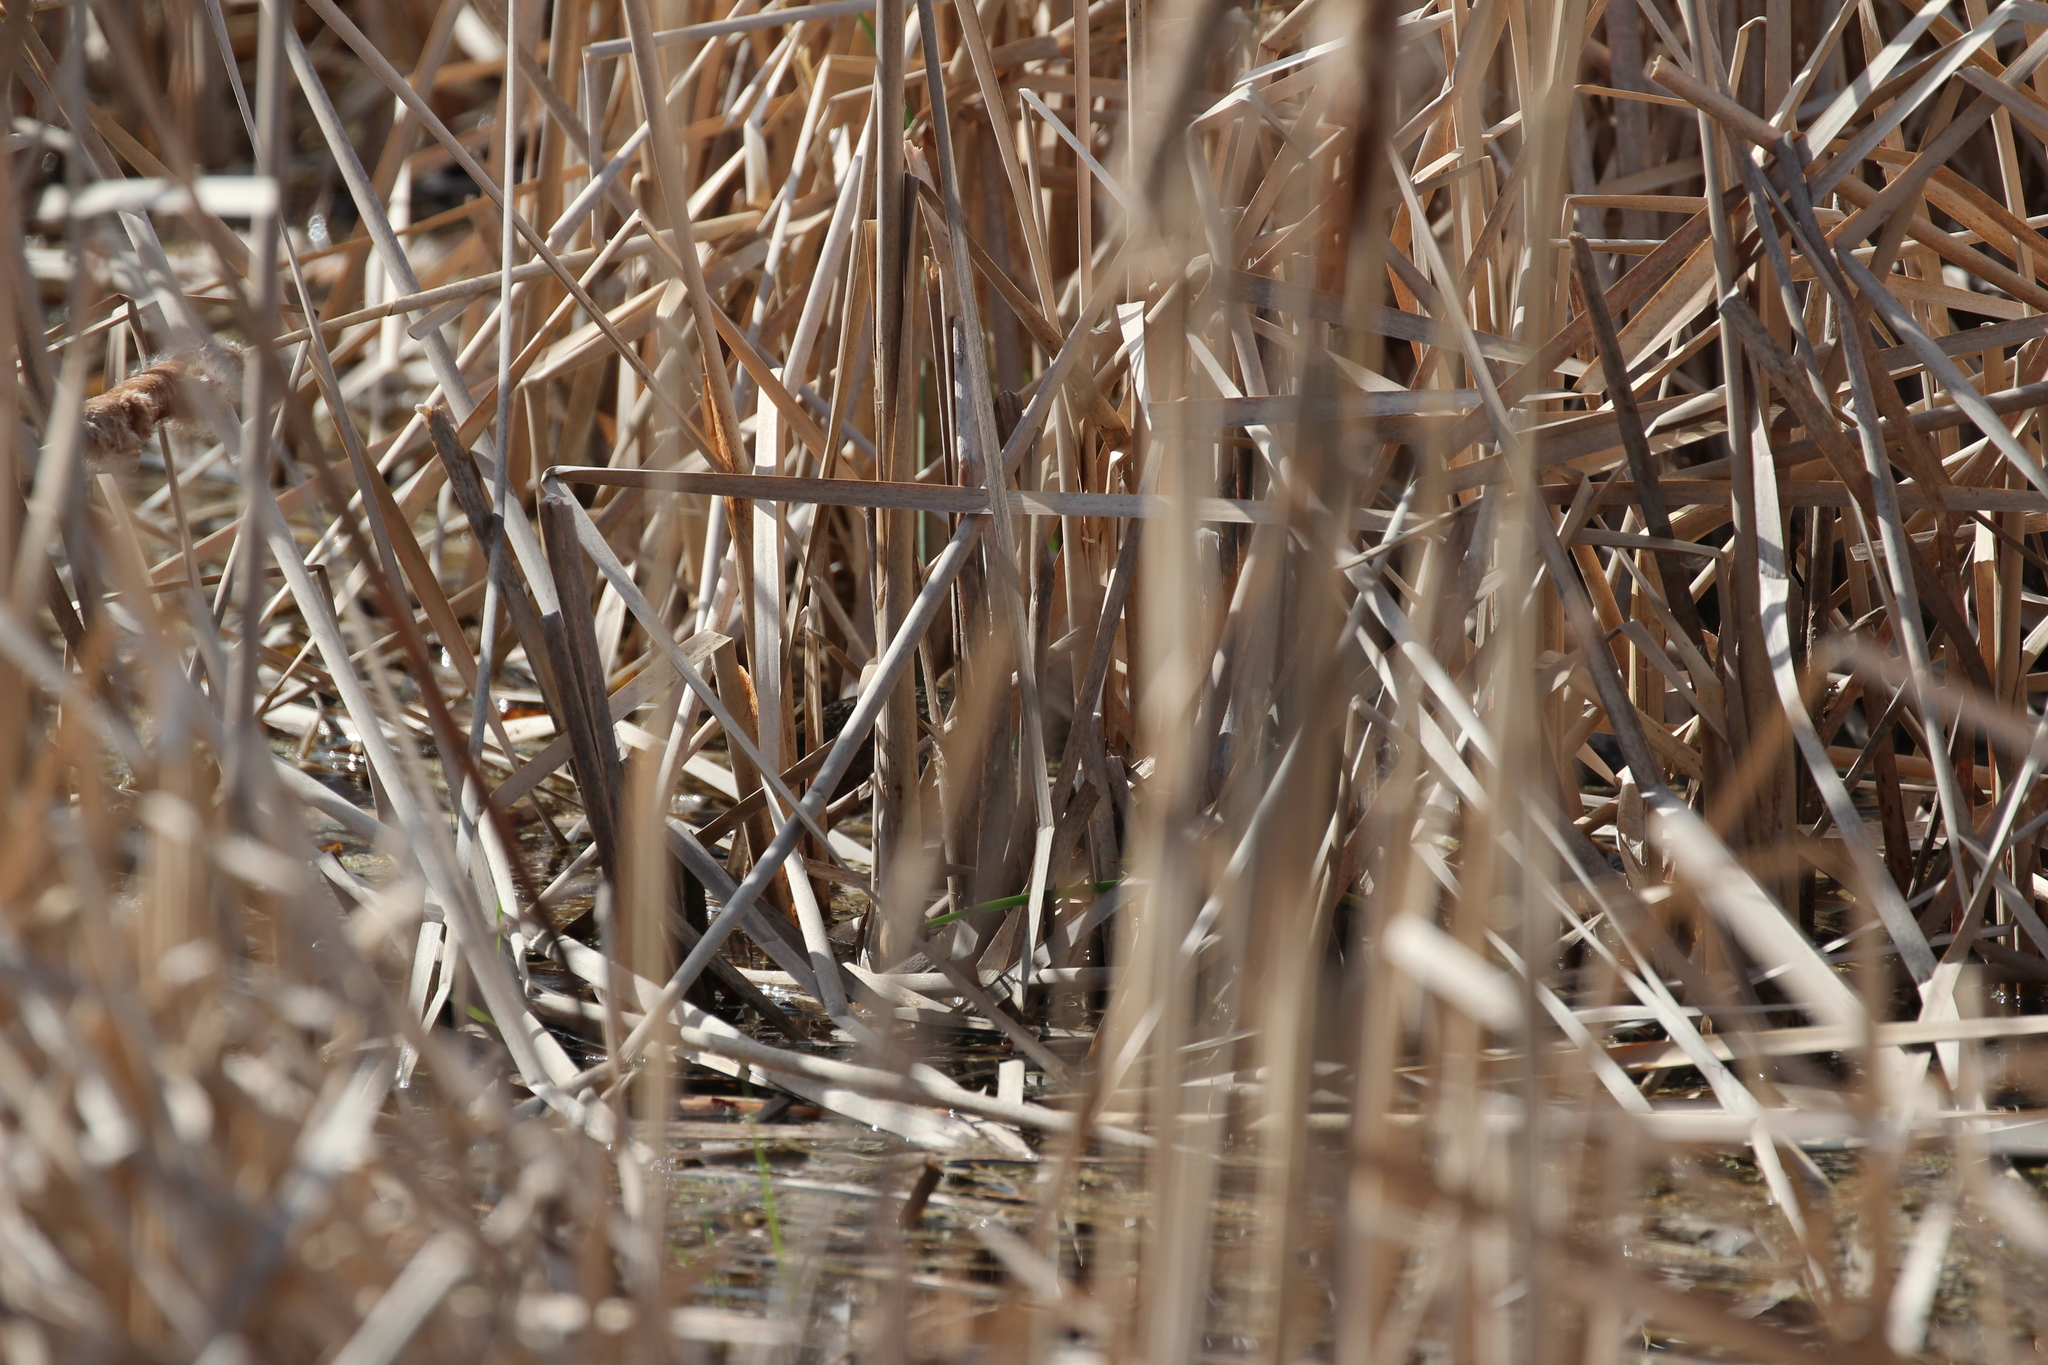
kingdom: Animalia
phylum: Chordata
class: Aves
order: Gruiformes
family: Rallidae
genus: Porzana
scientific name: Porzana carolina
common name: Sora
